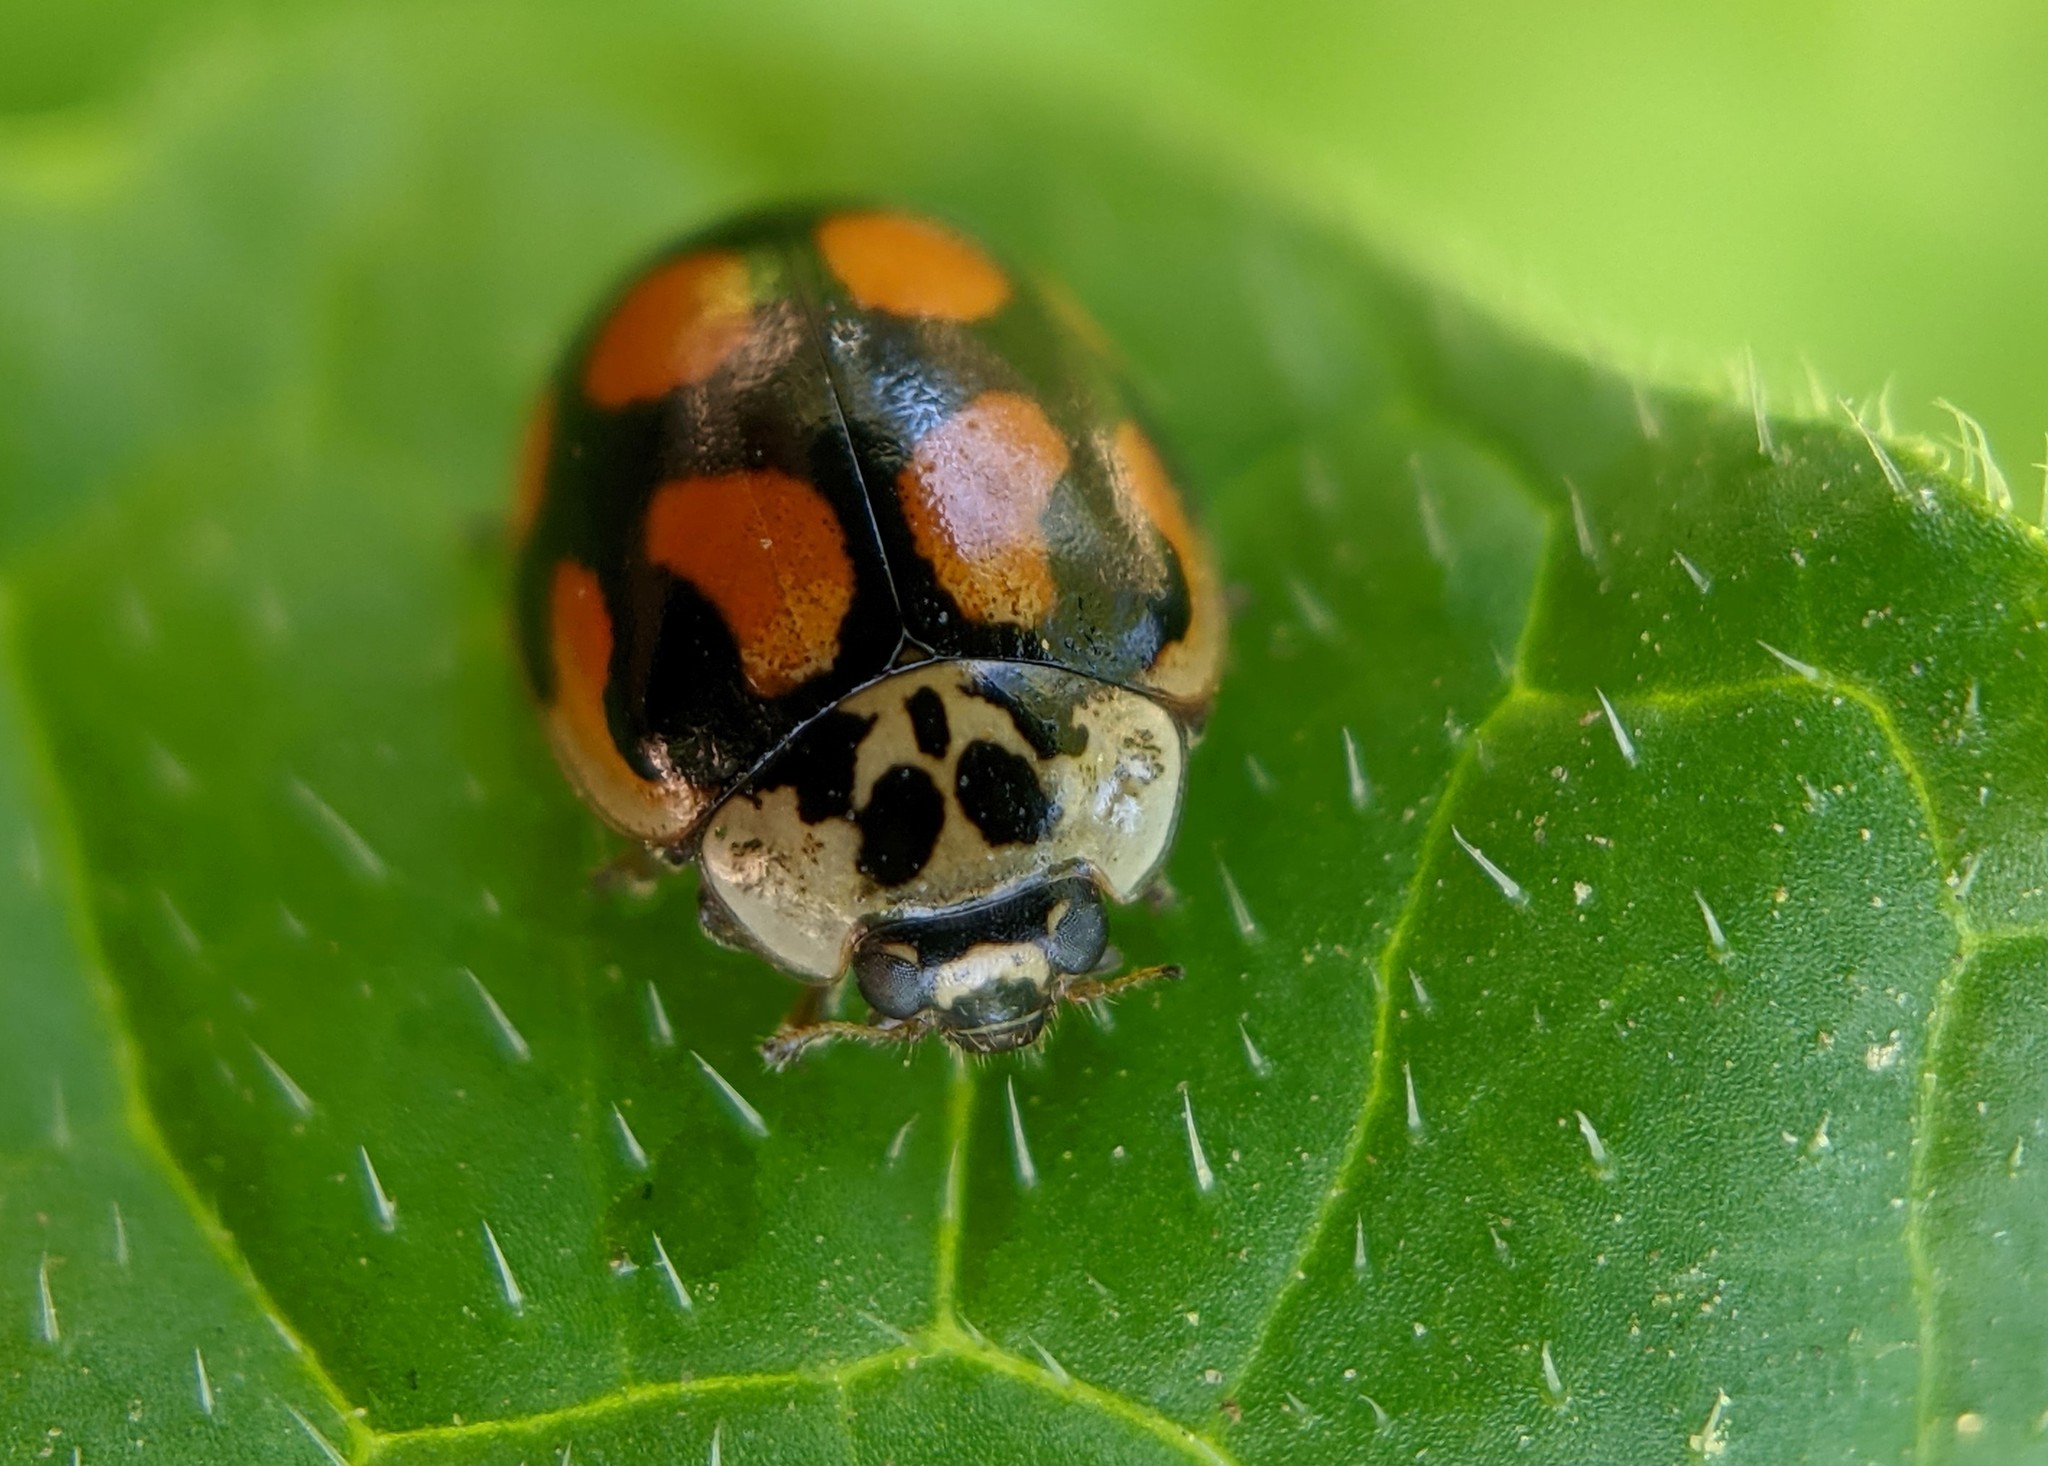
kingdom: Animalia
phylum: Arthropoda
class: Insecta
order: Coleoptera
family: Coccinellidae
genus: Adalia
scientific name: Adalia decempunctata
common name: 10-spot ladybird
